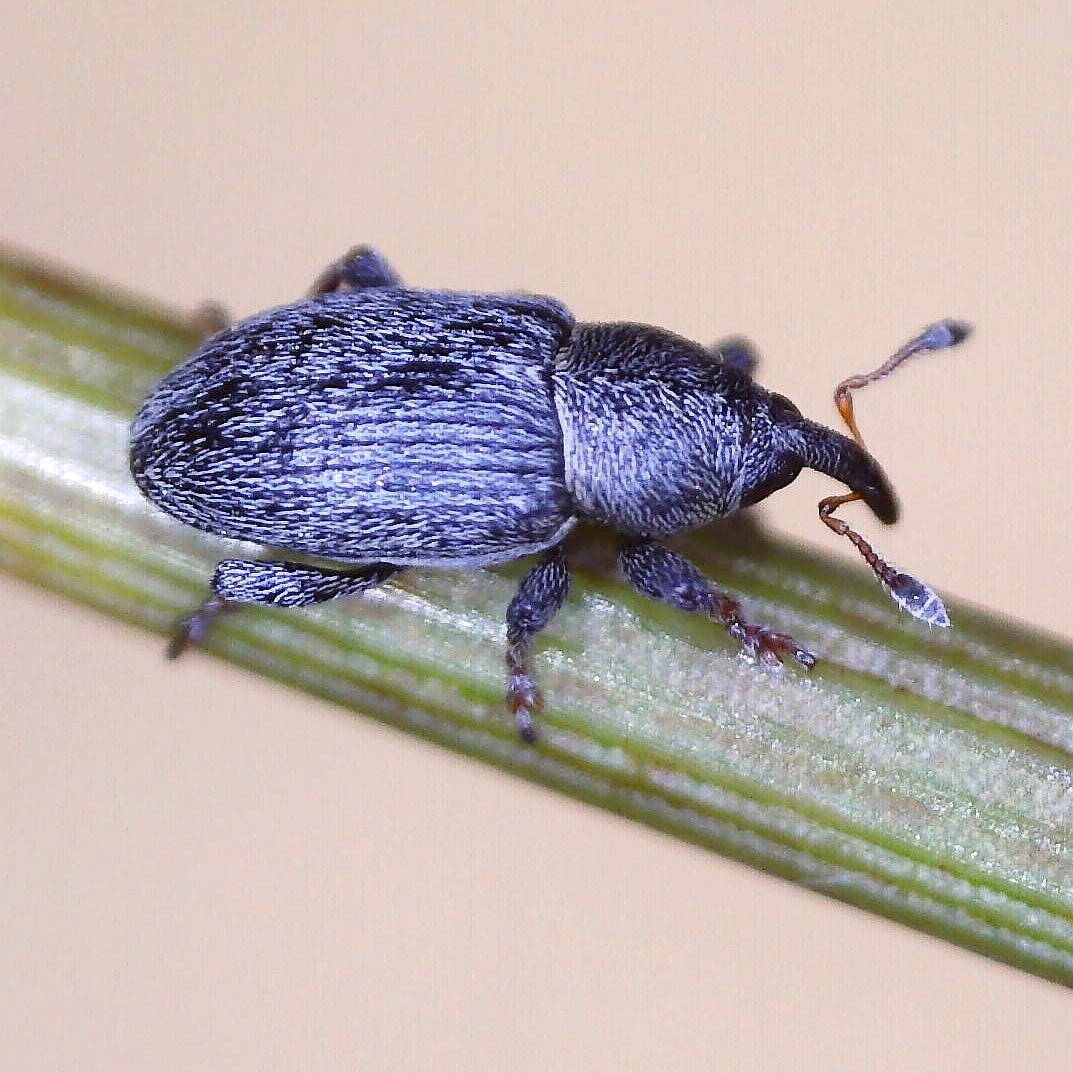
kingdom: Animalia
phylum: Arthropoda
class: Insecta
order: Coleoptera
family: Curculionidae
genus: Tychius
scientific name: Tychius picirostris
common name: Clover seed weevil
